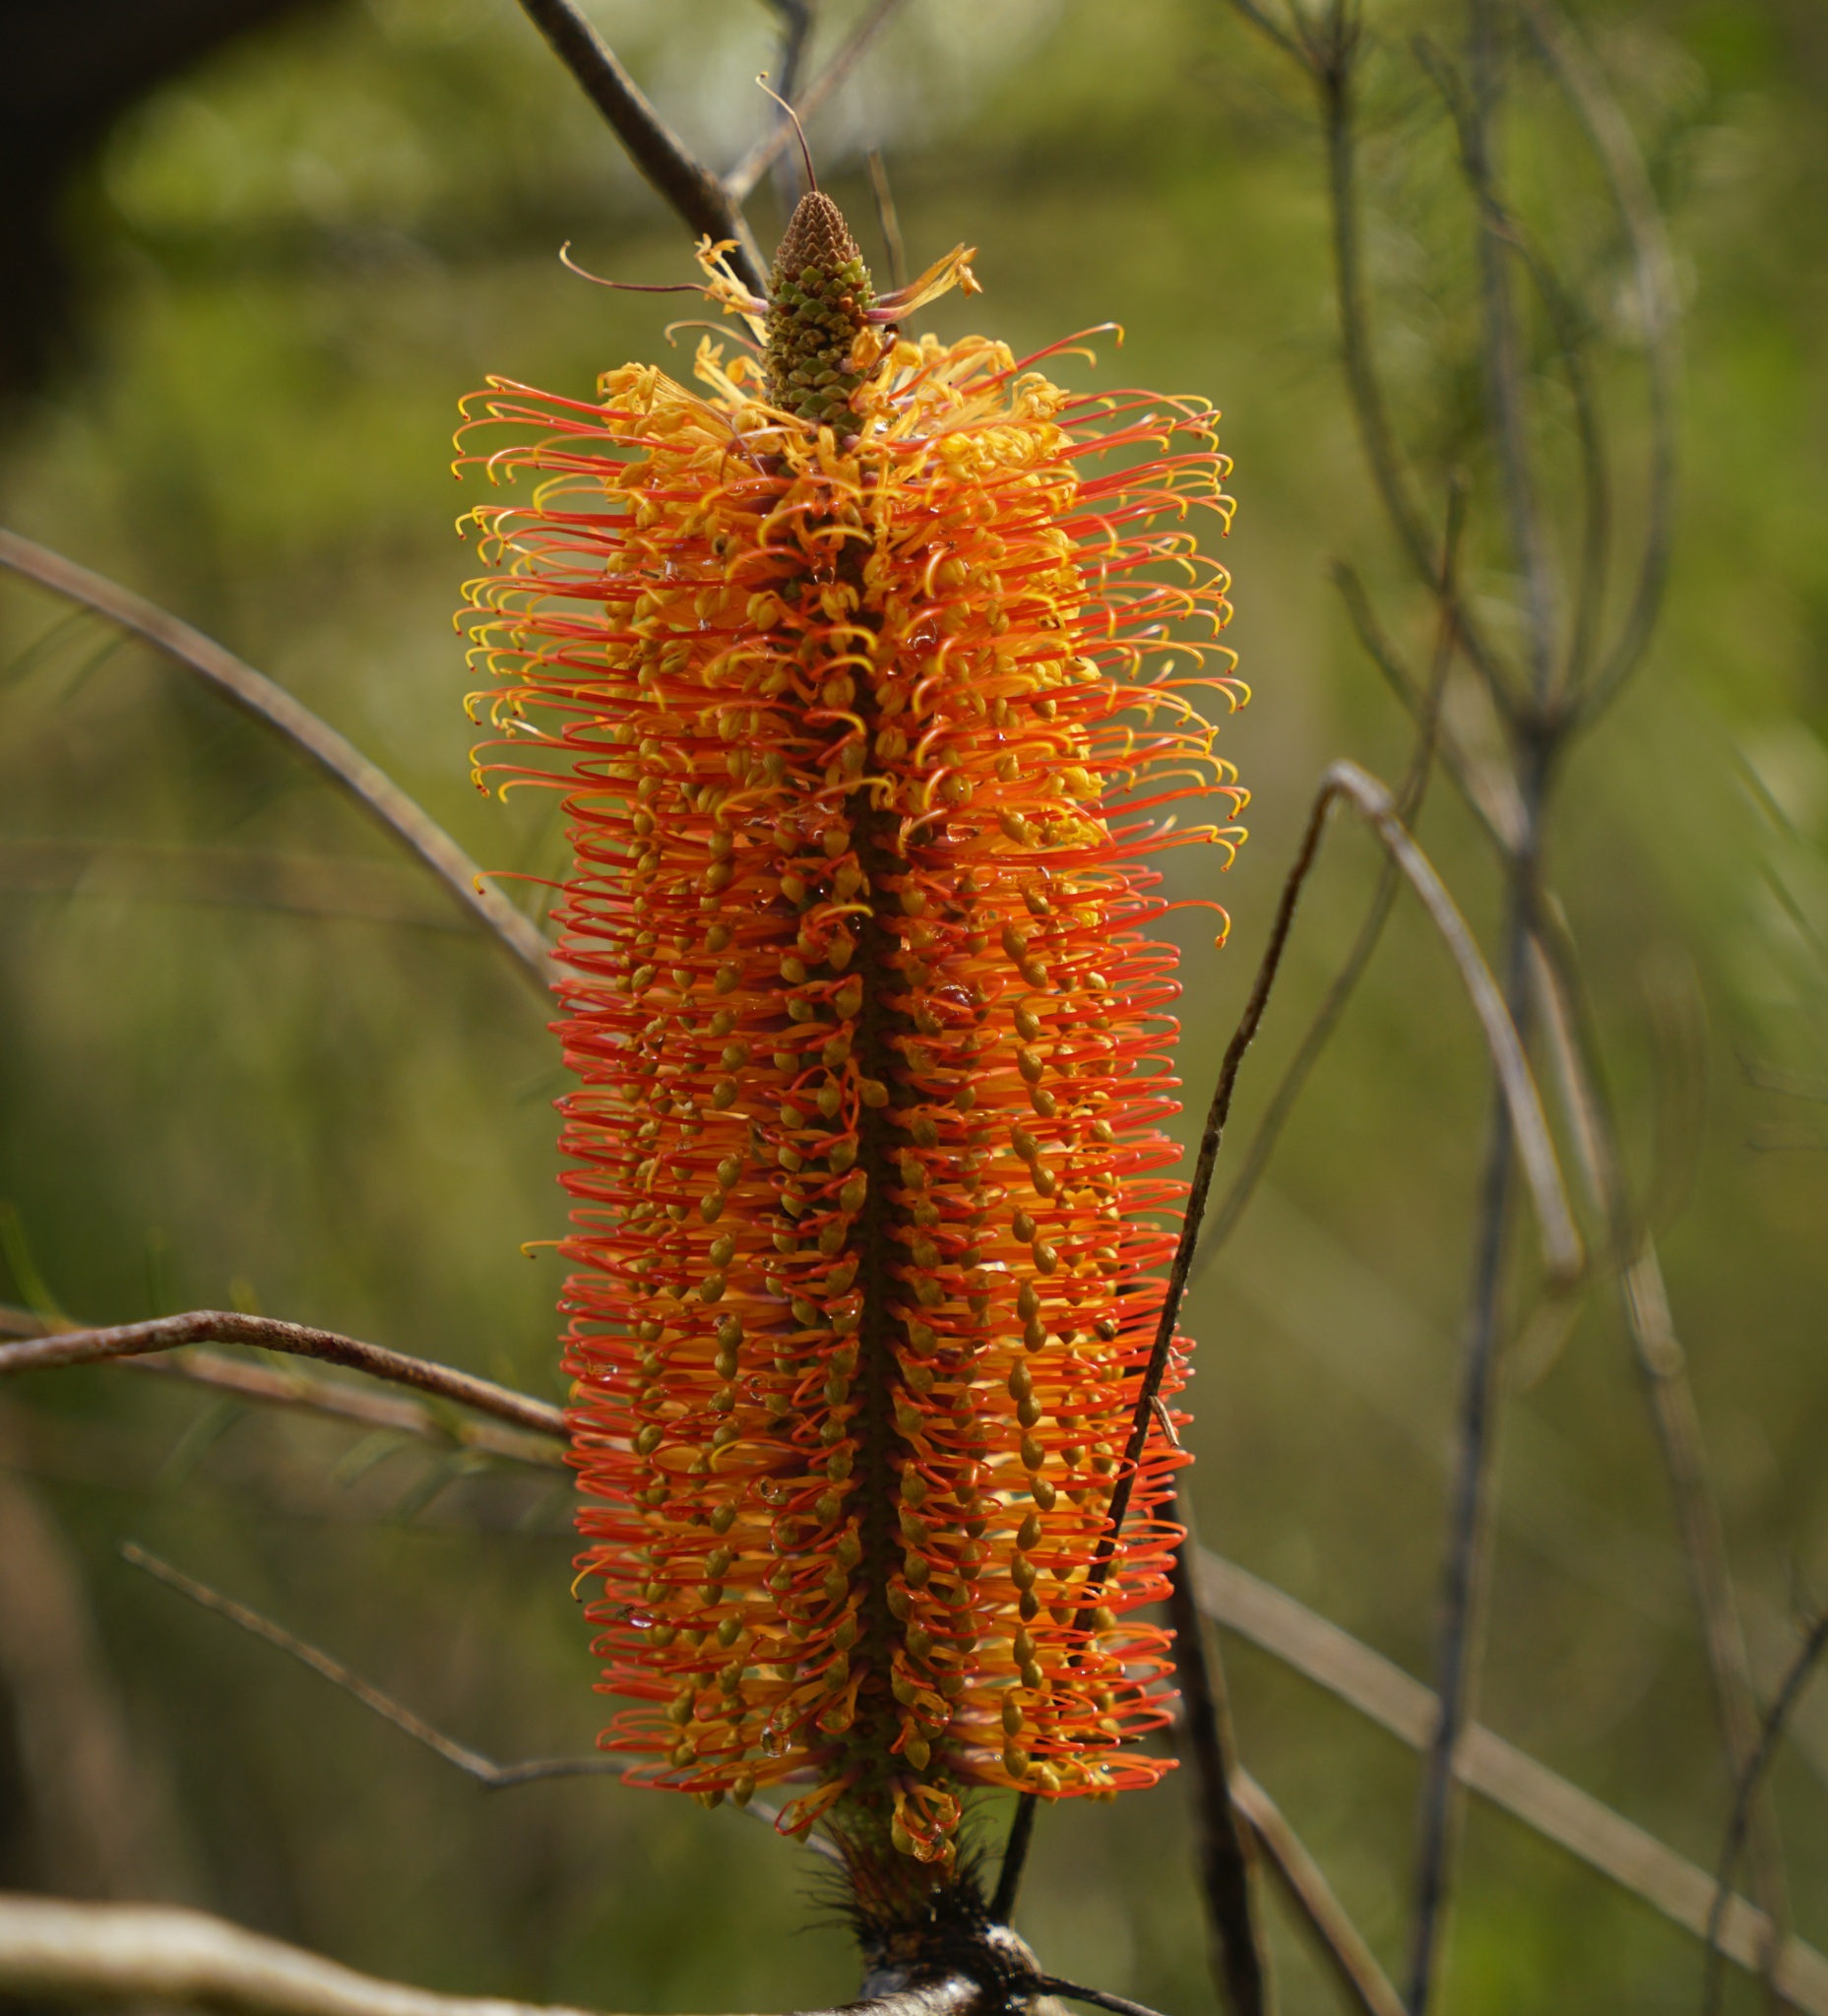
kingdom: Plantae
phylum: Tracheophyta
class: Magnoliopsida
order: Proteales
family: Proteaceae
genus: Banksia
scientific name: Banksia ericifolia
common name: Heath-leaf banksia
